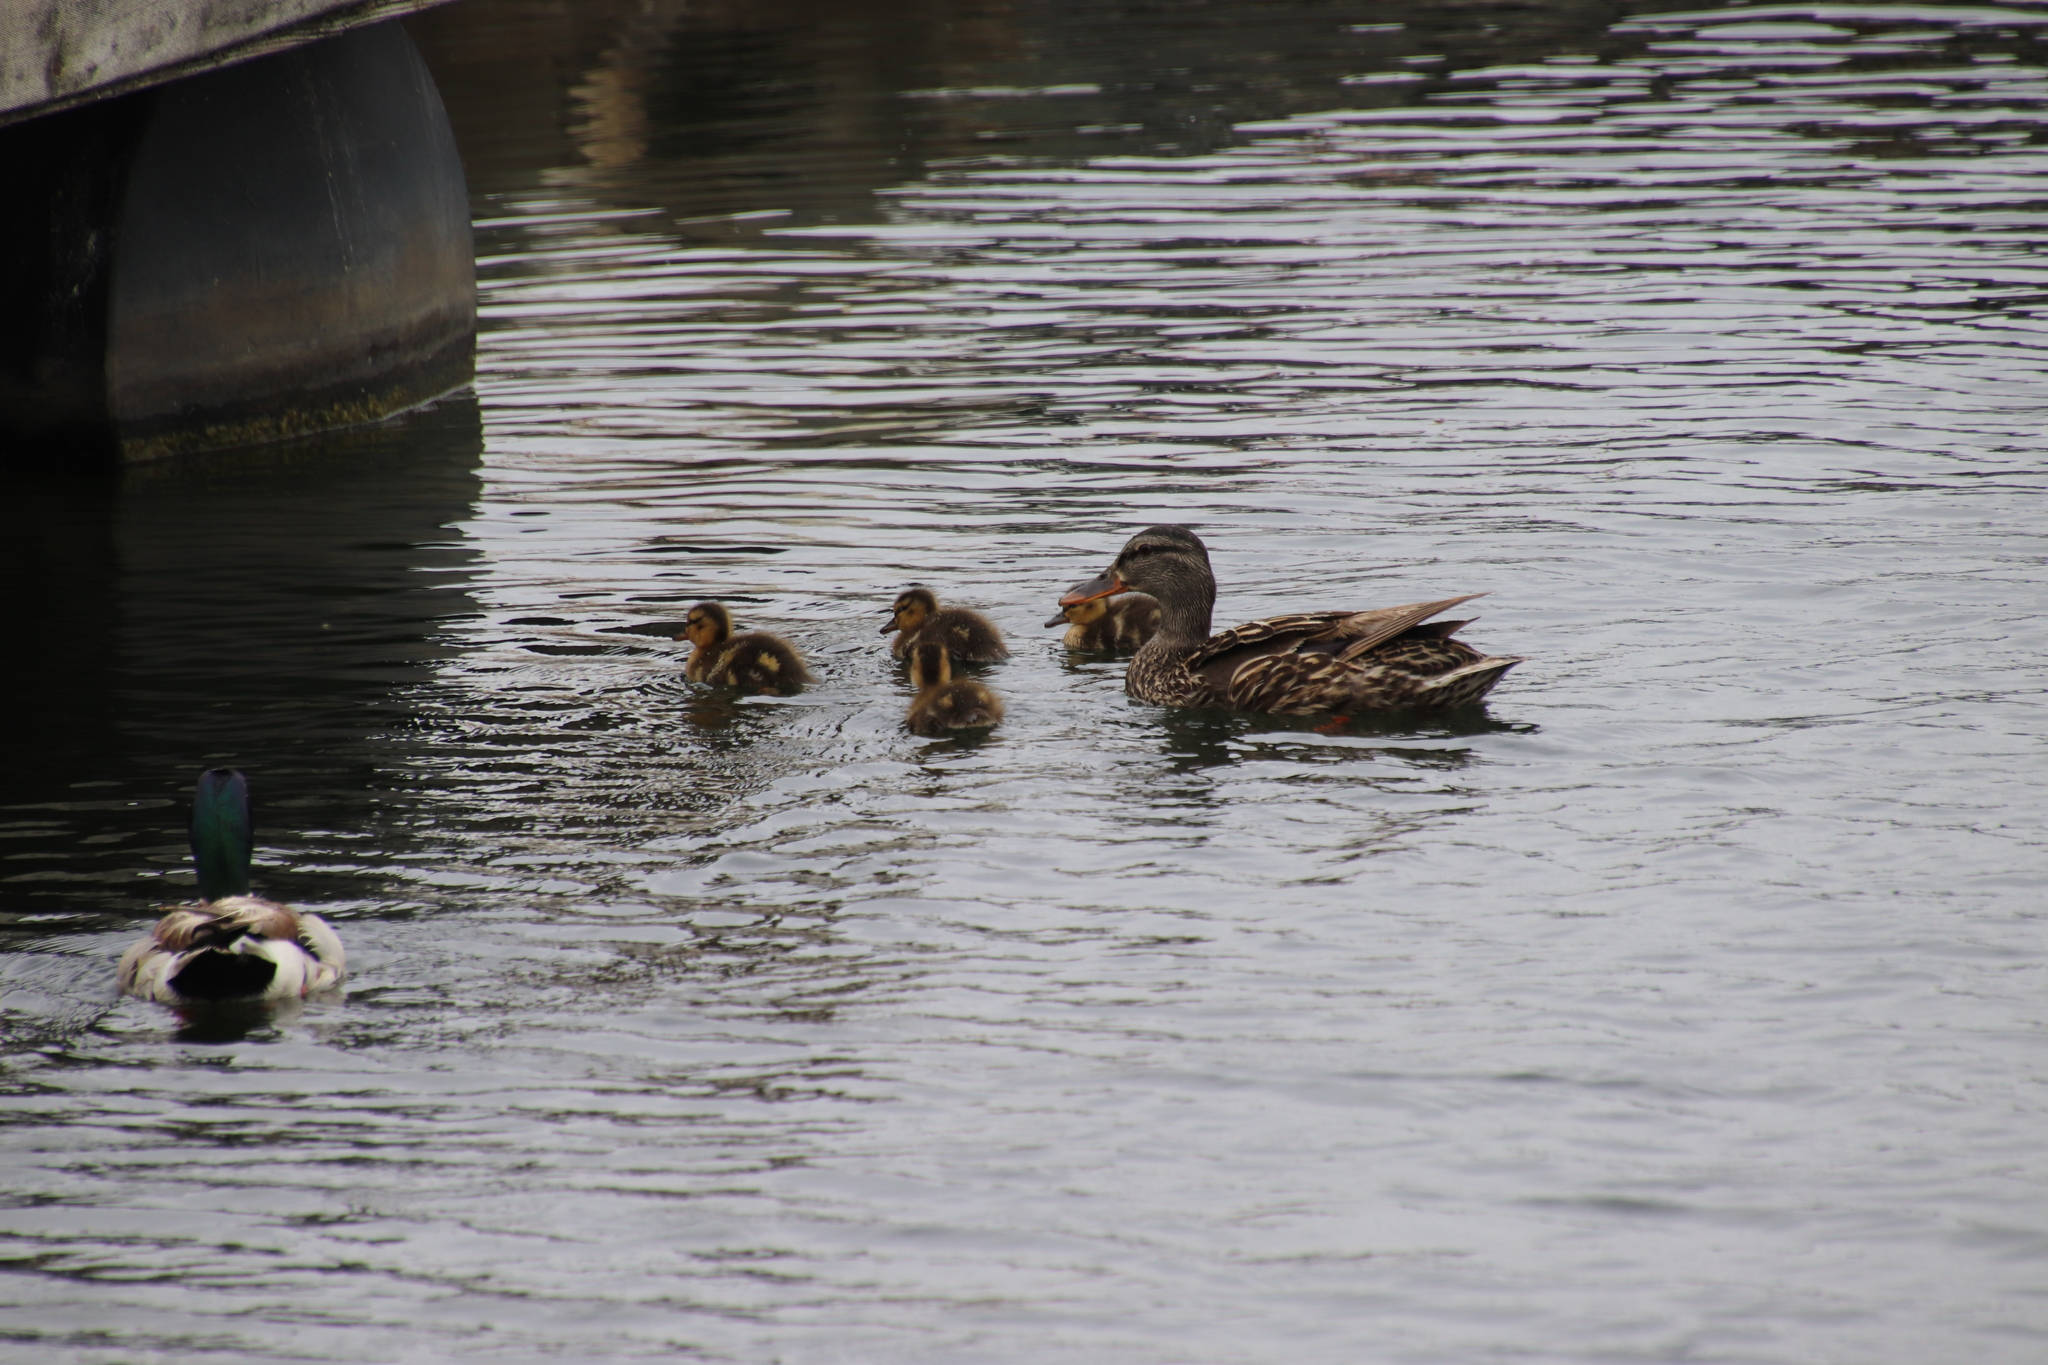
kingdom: Animalia
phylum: Chordata
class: Aves
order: Anseriformes
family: Anatidae
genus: Anas
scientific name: Anas platyrhynchos
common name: Mallard
